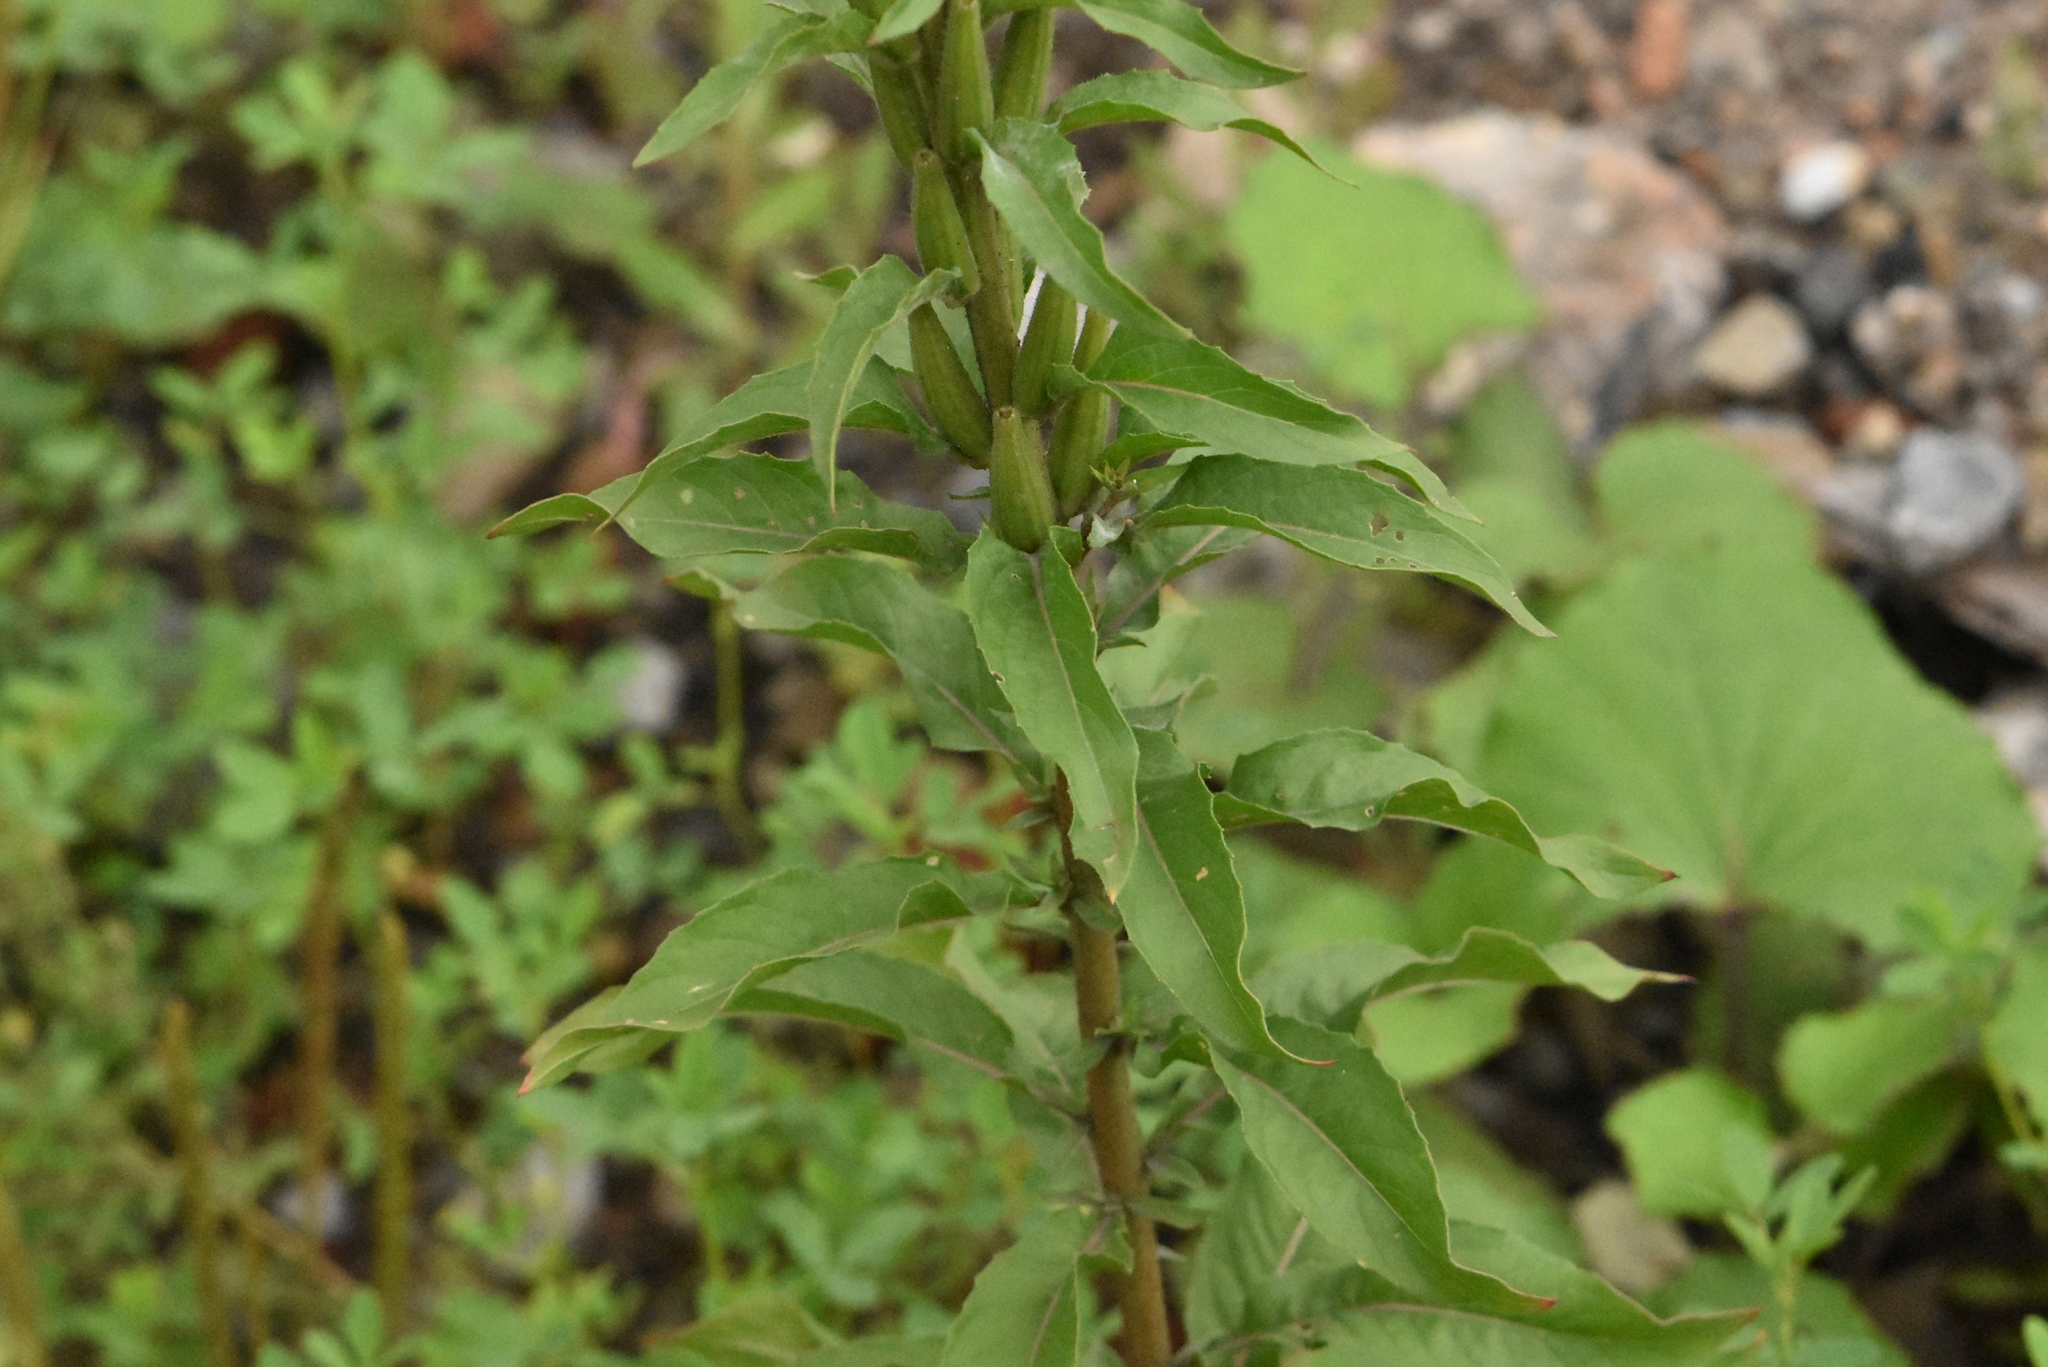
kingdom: Plantae
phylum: Tracheophyta
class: Magnoliopsida
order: Myrtales
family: Onagraceae
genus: Oenothera
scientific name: Oenothera rubricaulis
